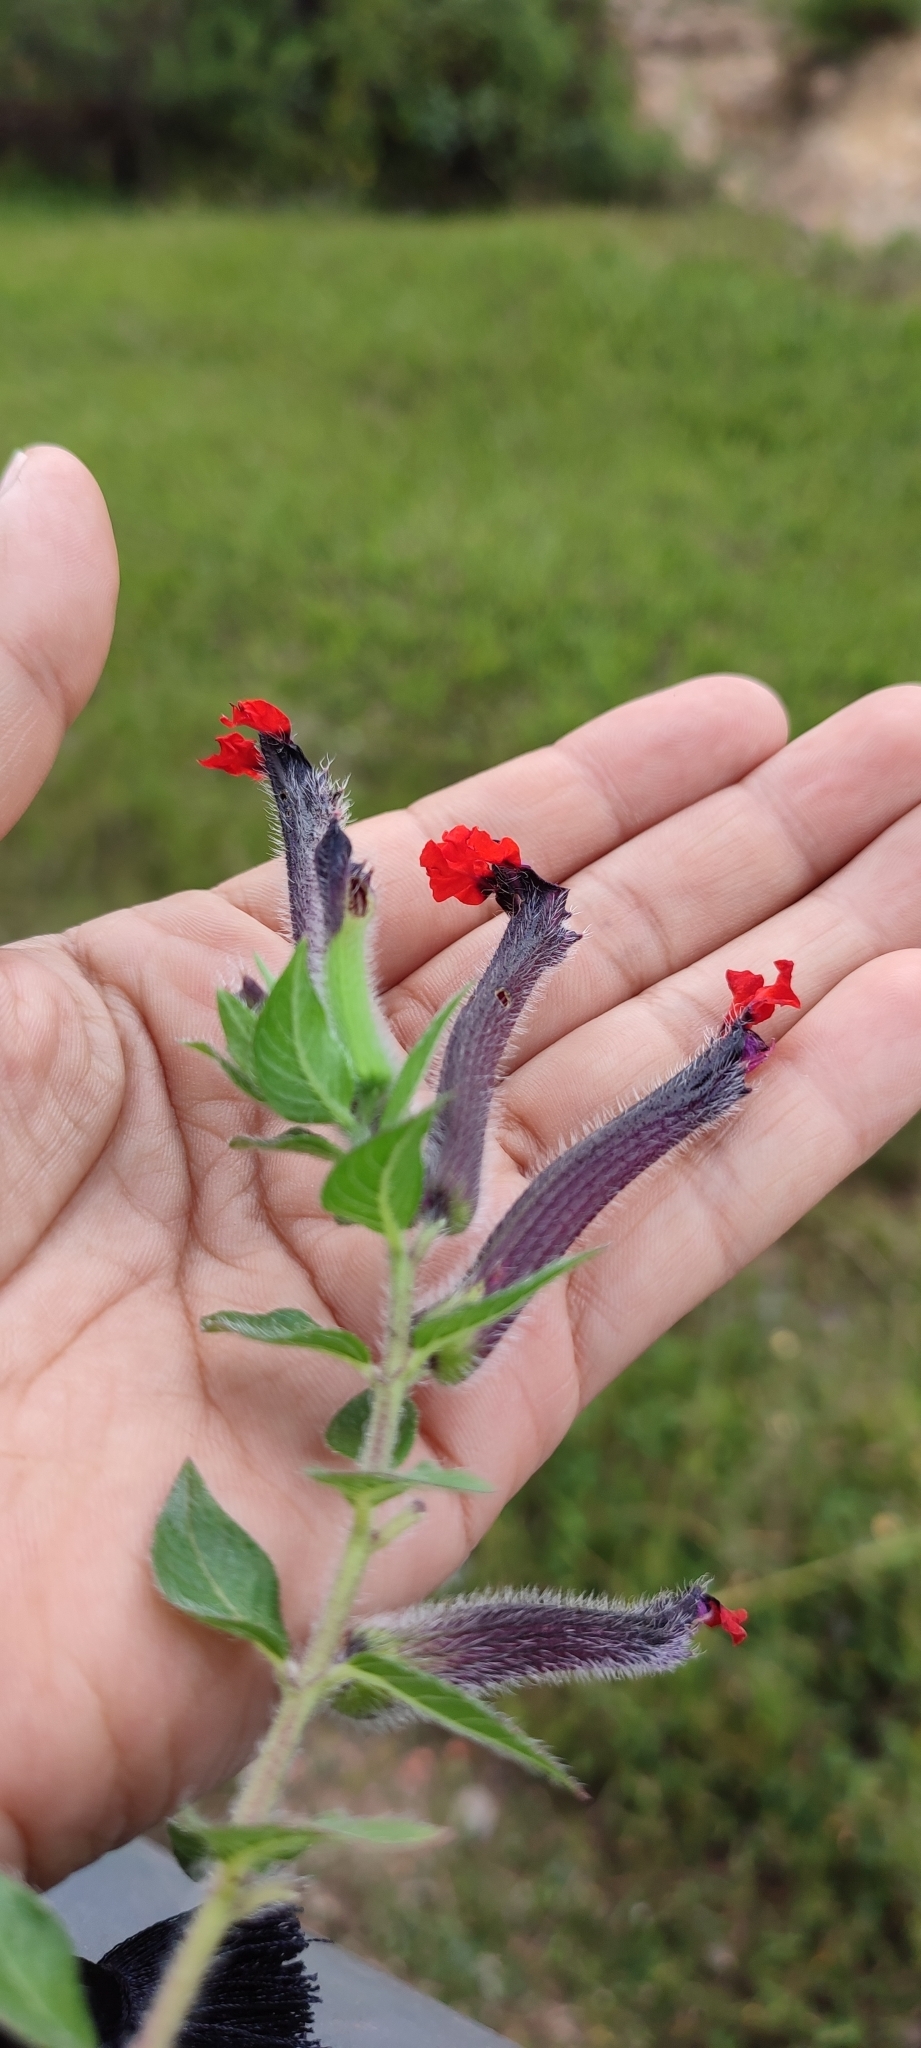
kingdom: Plantae
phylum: Tracheophyta
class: Magnoliopsida
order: Myrtales
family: Lythraceae
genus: Cuphea
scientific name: Cuphea llavea
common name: Tiny-mice
